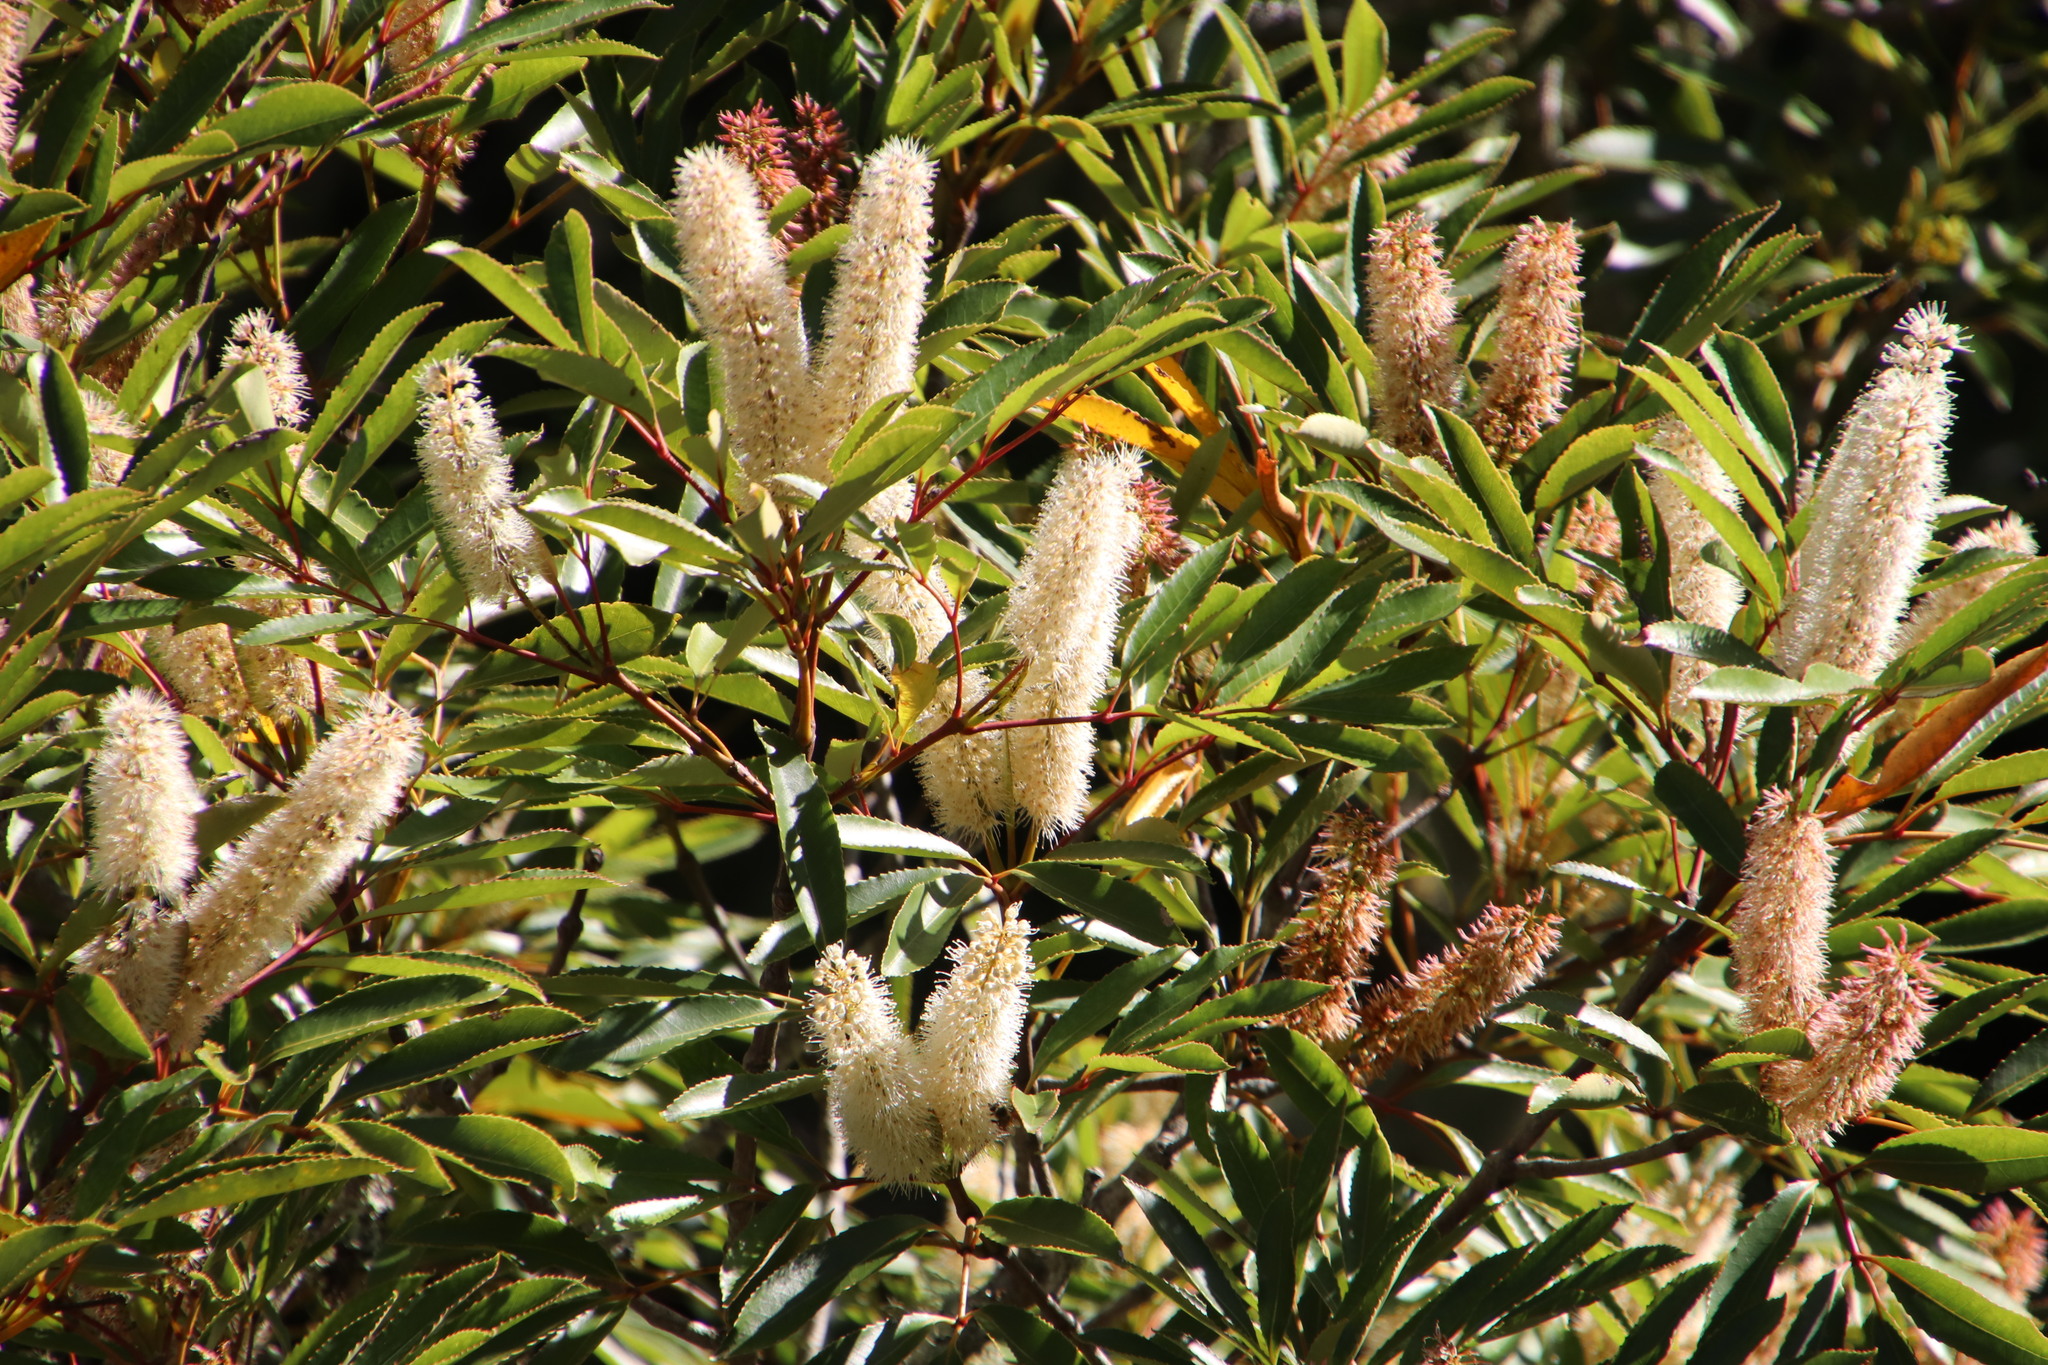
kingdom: Plantae
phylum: Tracheophyta
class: Magnoliopsida
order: Oxalidales
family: Cunoniaceae
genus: Cunonia
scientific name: Cunonia capensis
